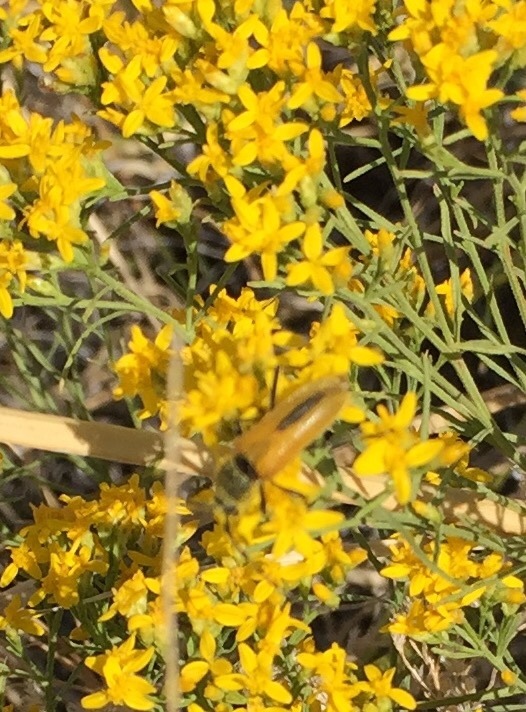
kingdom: Animalia
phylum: Arthropoda
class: Insecta
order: Coleoptera
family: Cerambycidae
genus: Crossidius
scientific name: Crossidius suturalis
